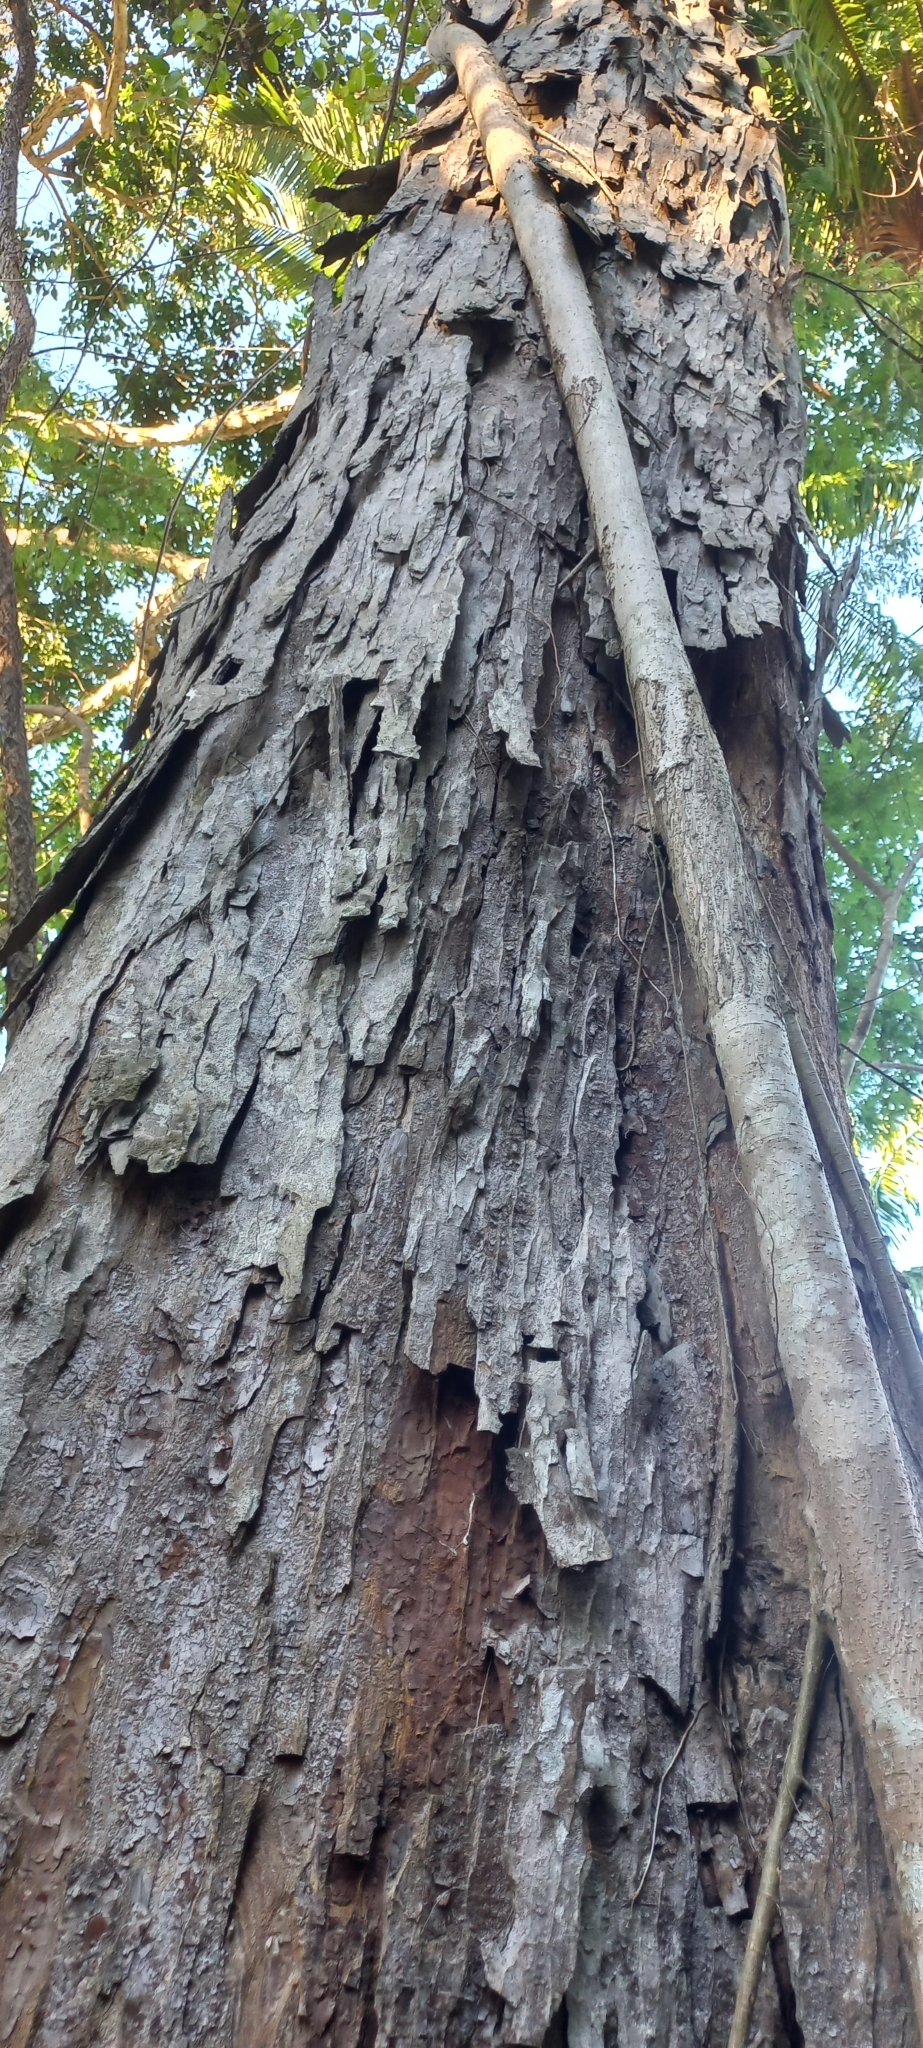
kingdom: Plantae
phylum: Tracheophyta
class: Magnoliopsida
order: Rosales
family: Moraceae
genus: Brosimum
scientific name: Brosimum alicastrum
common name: Breadnut
